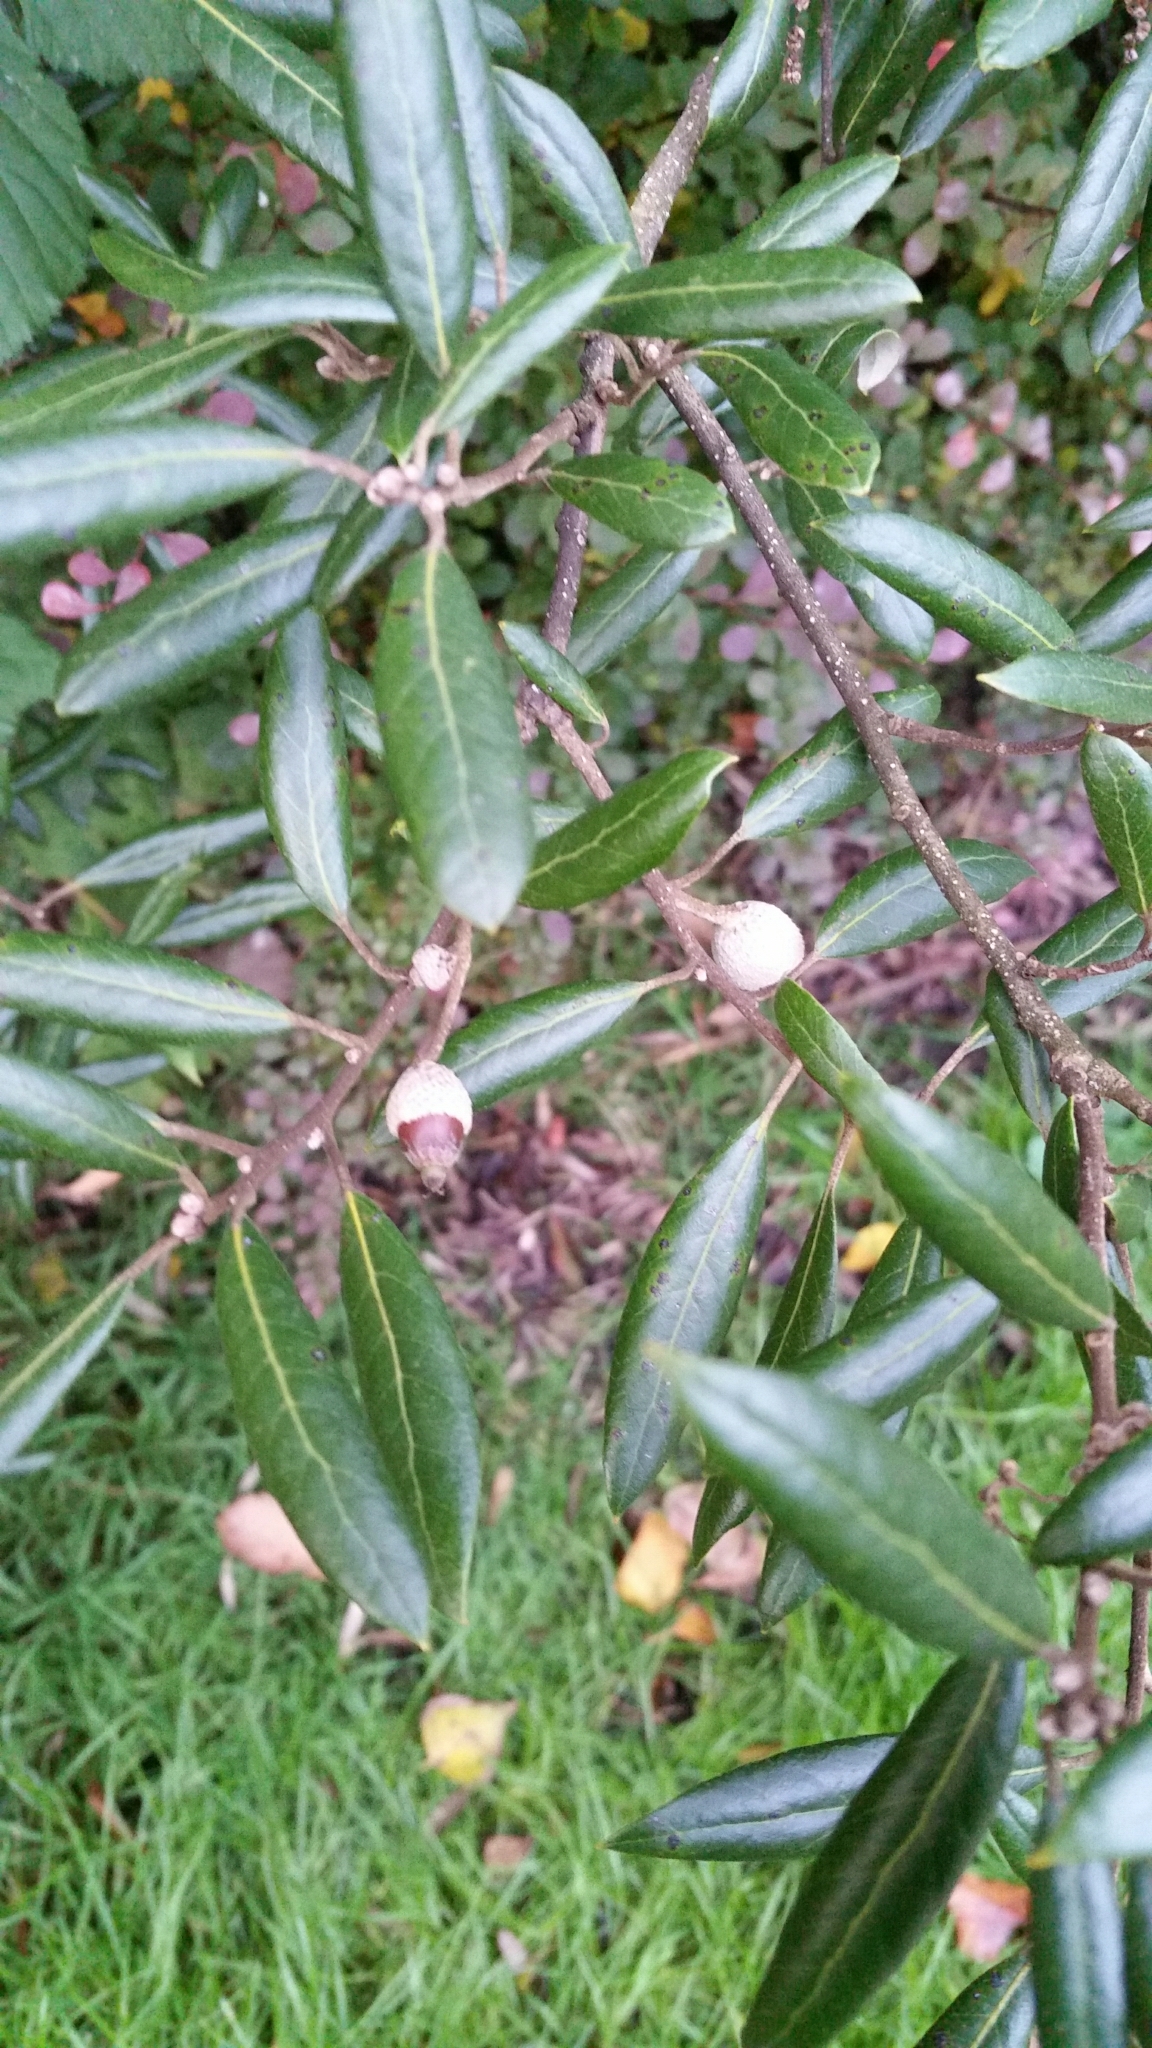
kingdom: Plantae
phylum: Tracheophyta
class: Magnoliopsida
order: Fagales
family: Fagaceae
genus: Quercus
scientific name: Quercus ilex
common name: Evergreen oak
